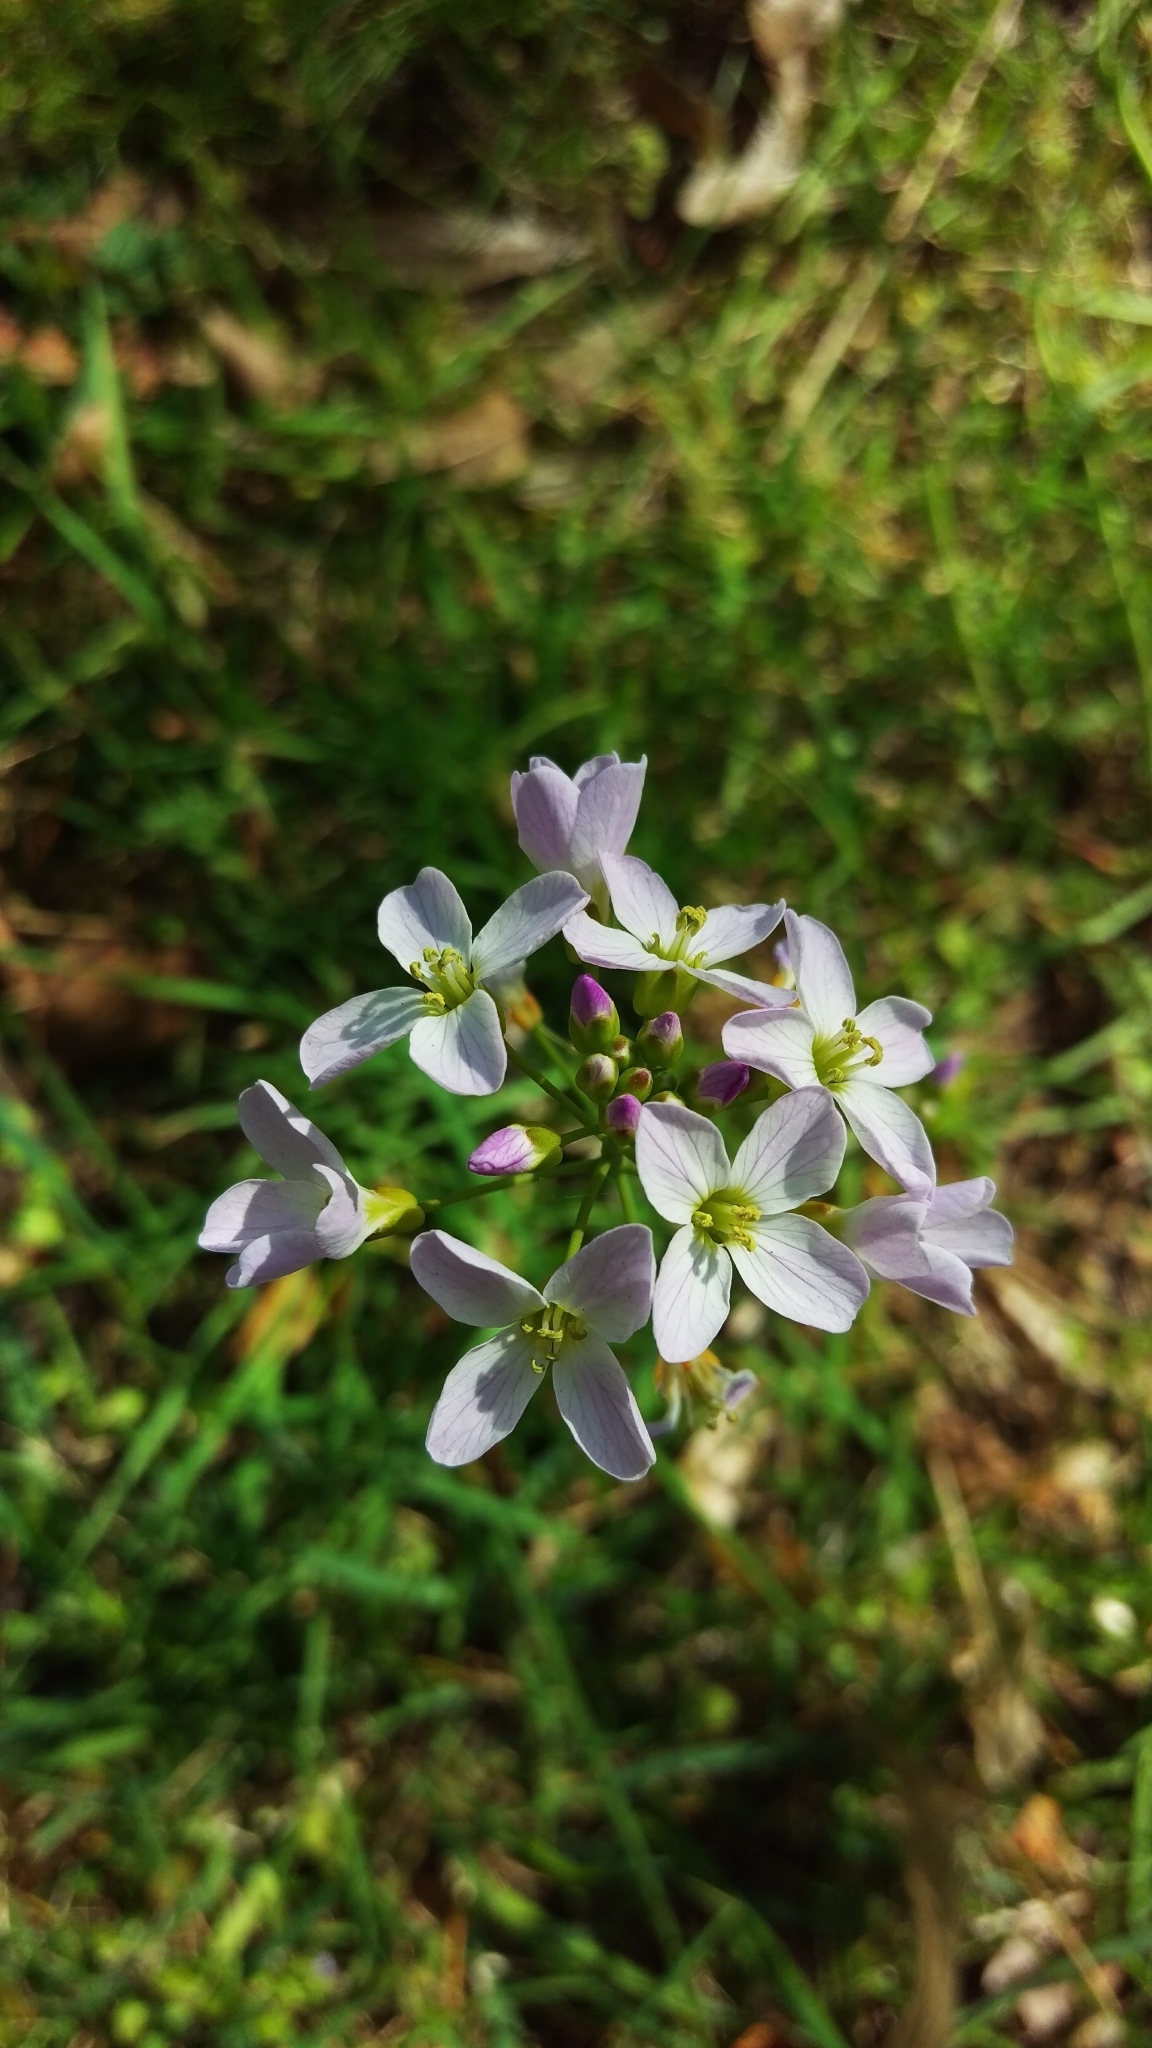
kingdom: Plantae
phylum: Tracheophyta
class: Magnoliopsida
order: Brassicales
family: Brassicaceae
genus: Cardamine
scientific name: Cardamine pratensis
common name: Cuckoo flower
